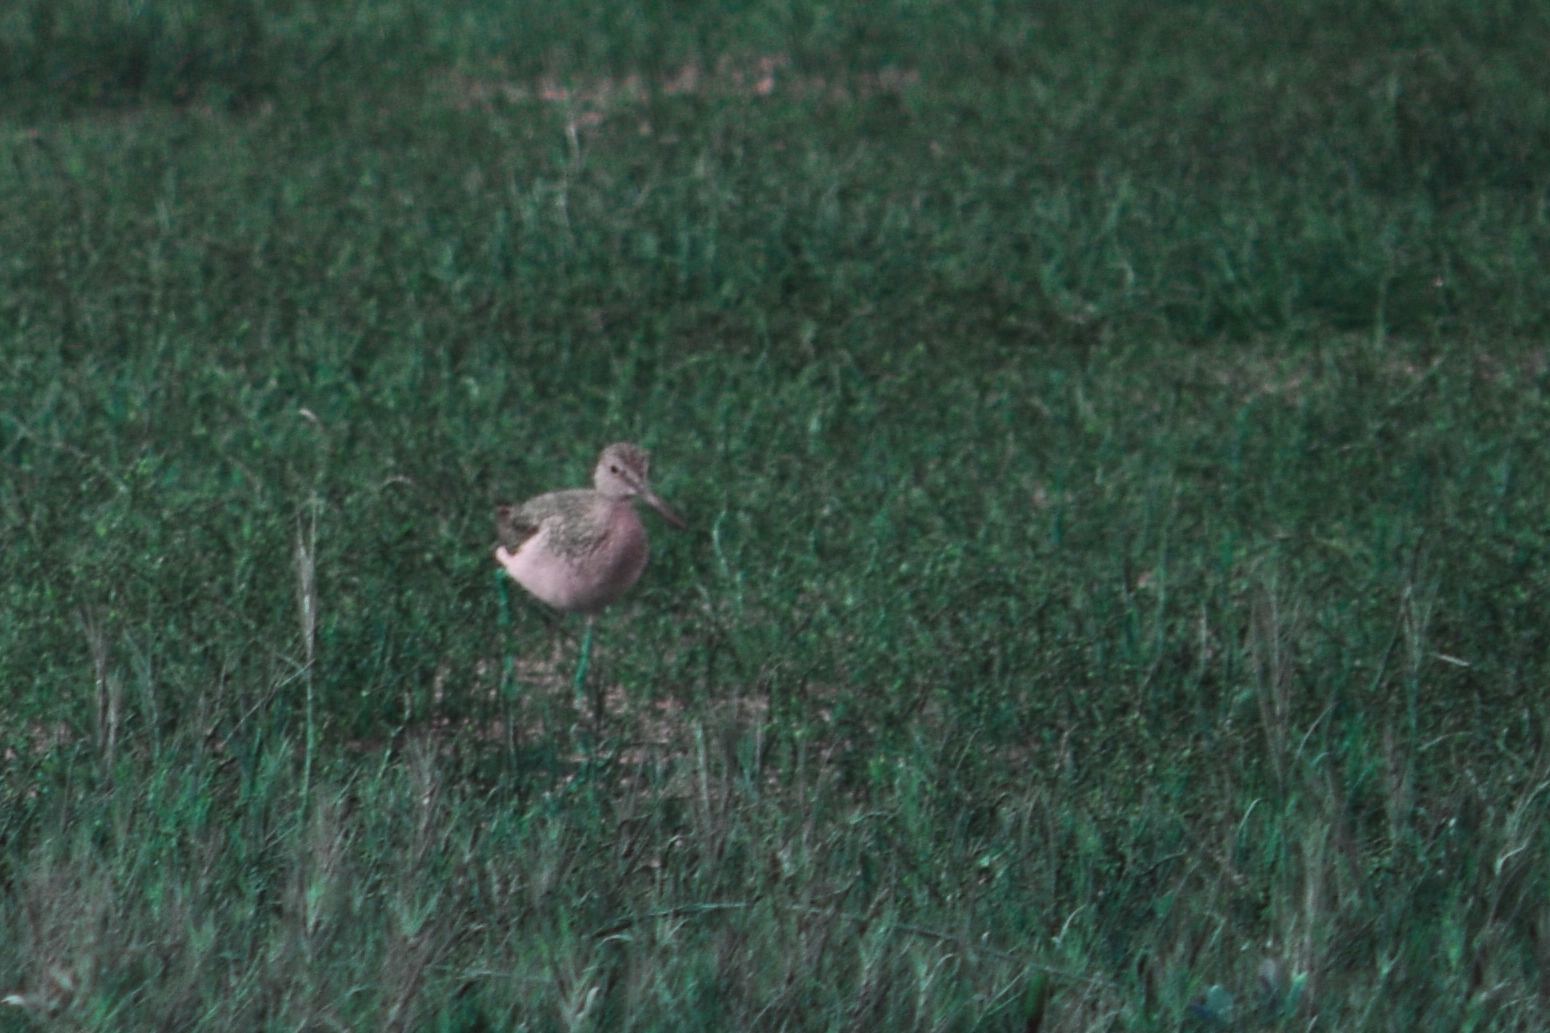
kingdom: Animalia
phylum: Chordata
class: Aves
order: Charadriiformes
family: Scolopacidae
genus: Tringa
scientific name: Tringa melanoleuca
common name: Greater yellowlegs
